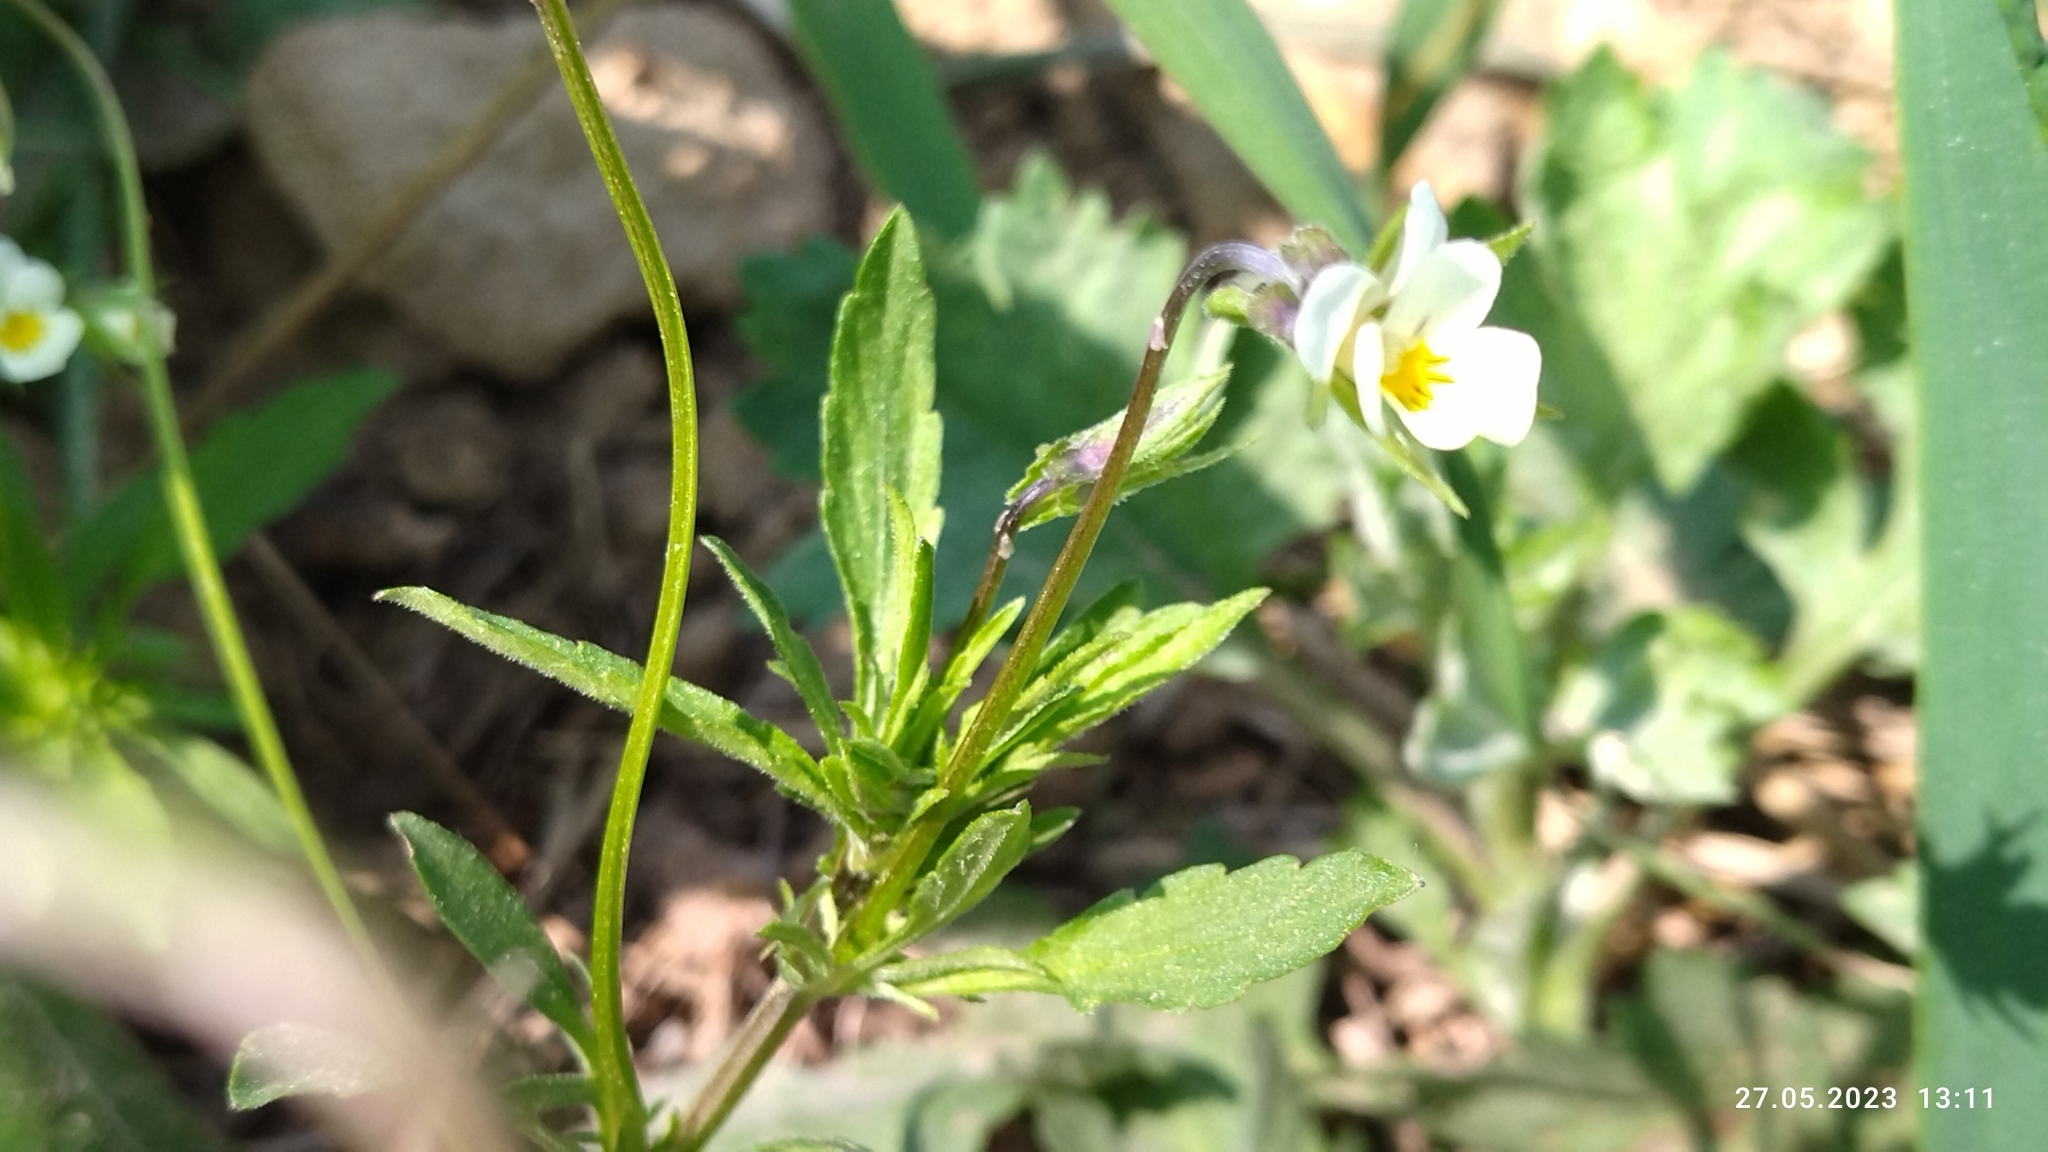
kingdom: Plantae
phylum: Tracheophyta
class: Magnoliopsida
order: Malpighiales
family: Violaceae
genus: Viola
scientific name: Viola arvensis
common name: Field pansy
